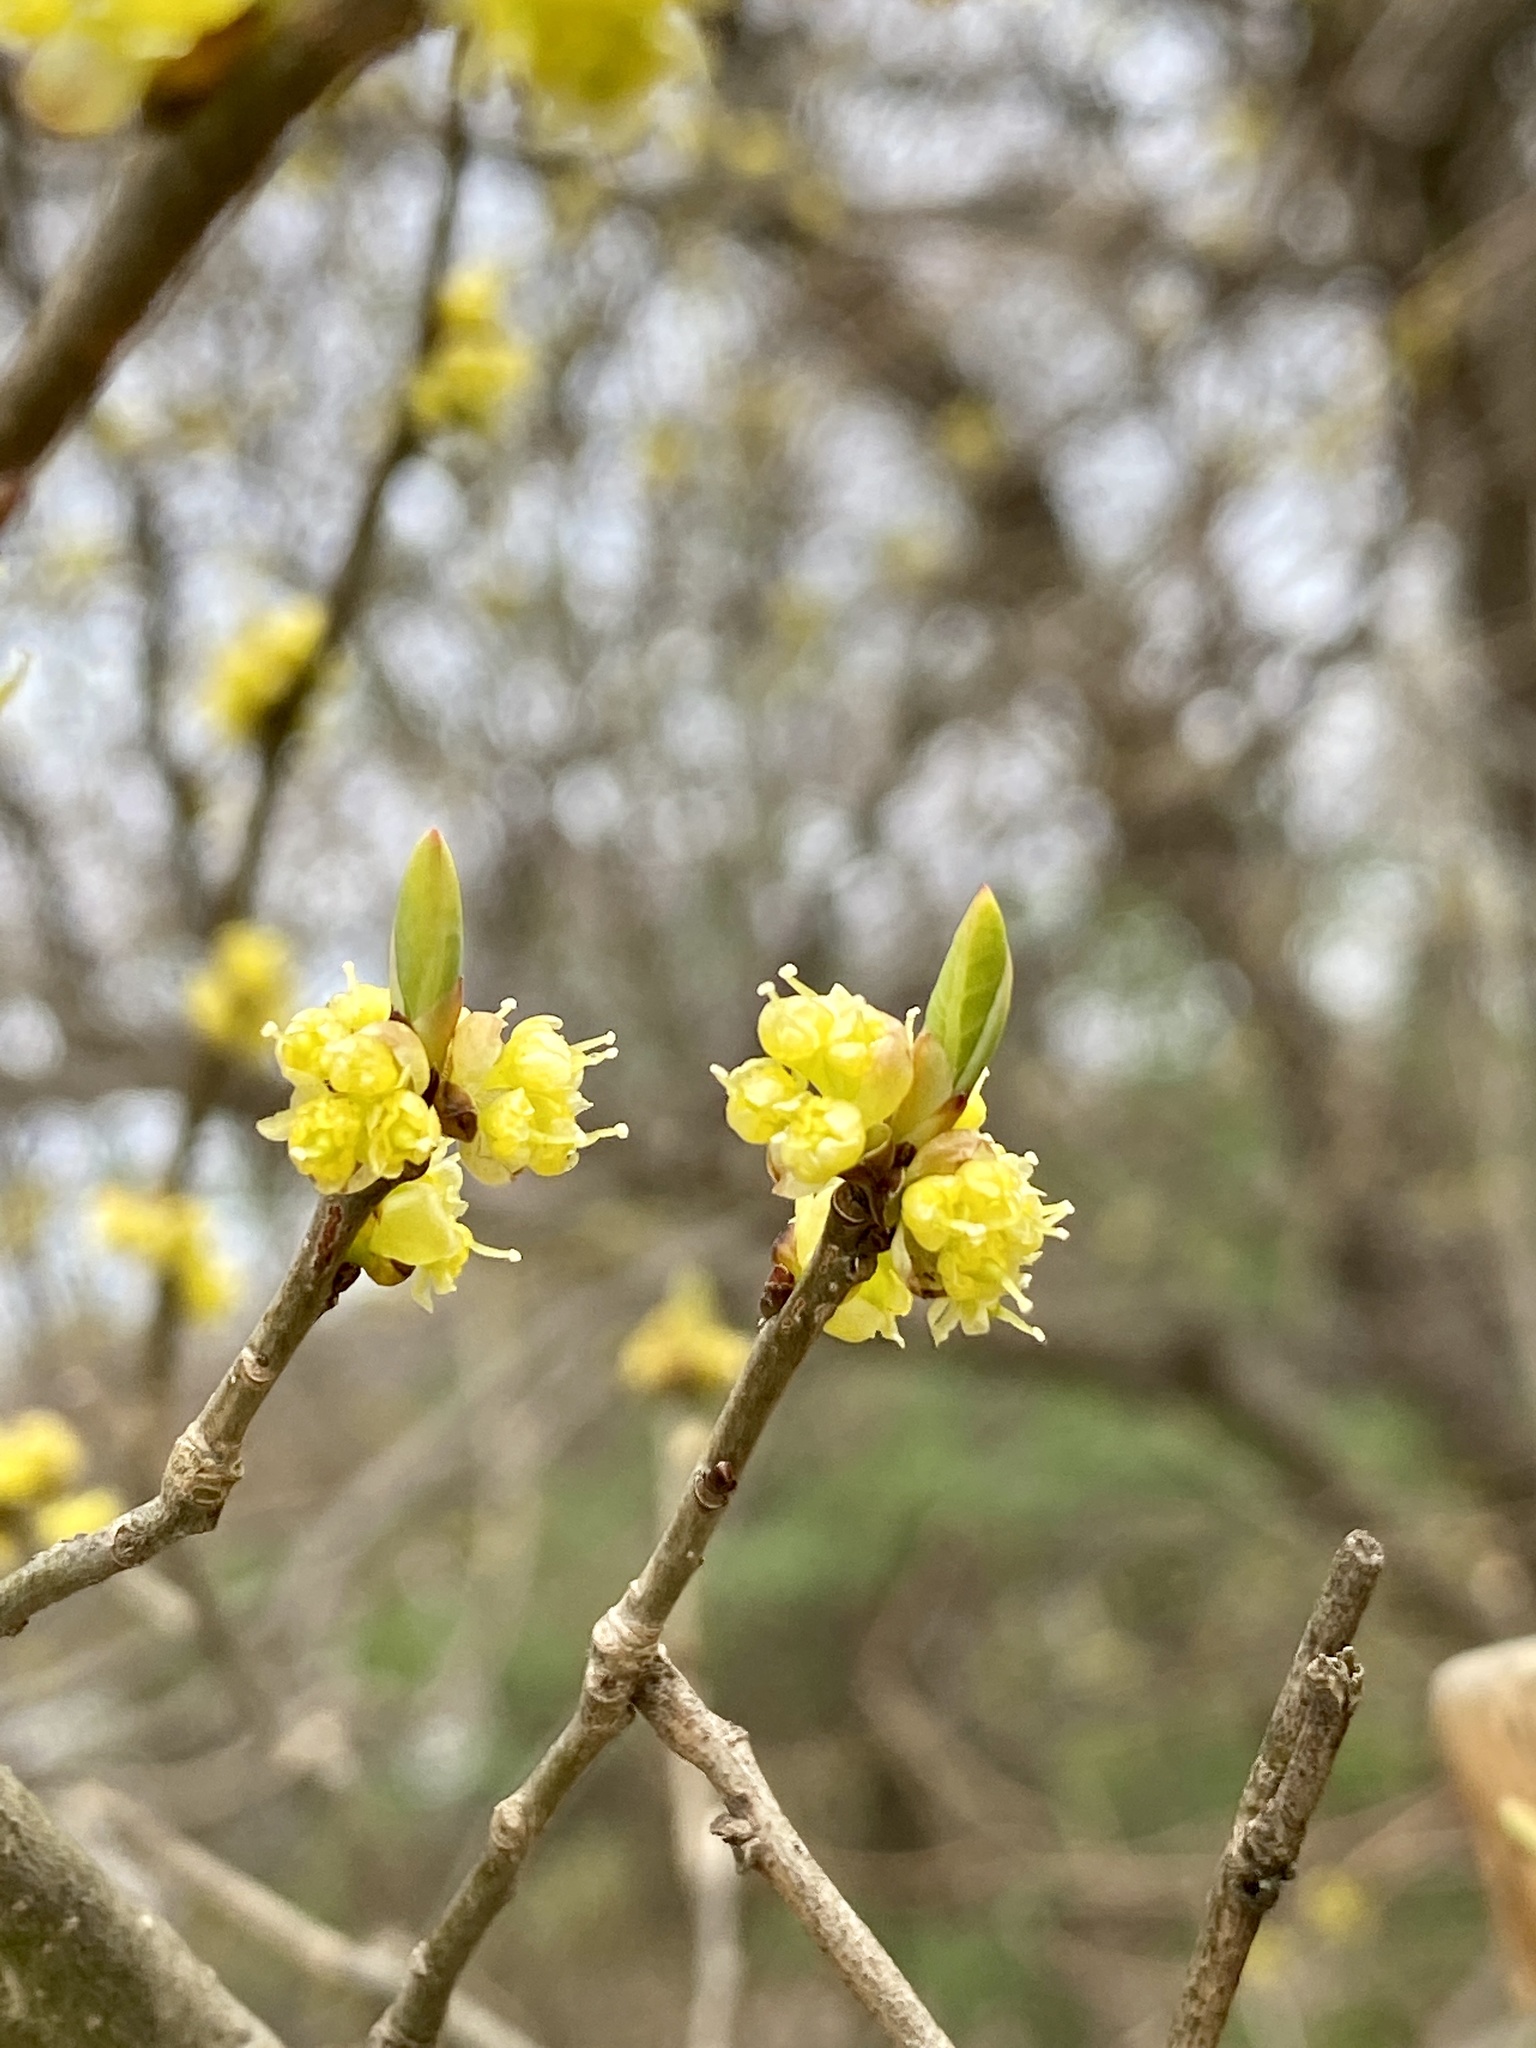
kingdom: Plantae
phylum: Tracheophyta
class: Magnoliopsida
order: Laurales
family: Lauraceae
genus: Lindera
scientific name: Lindera benzoin
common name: Spicebush
